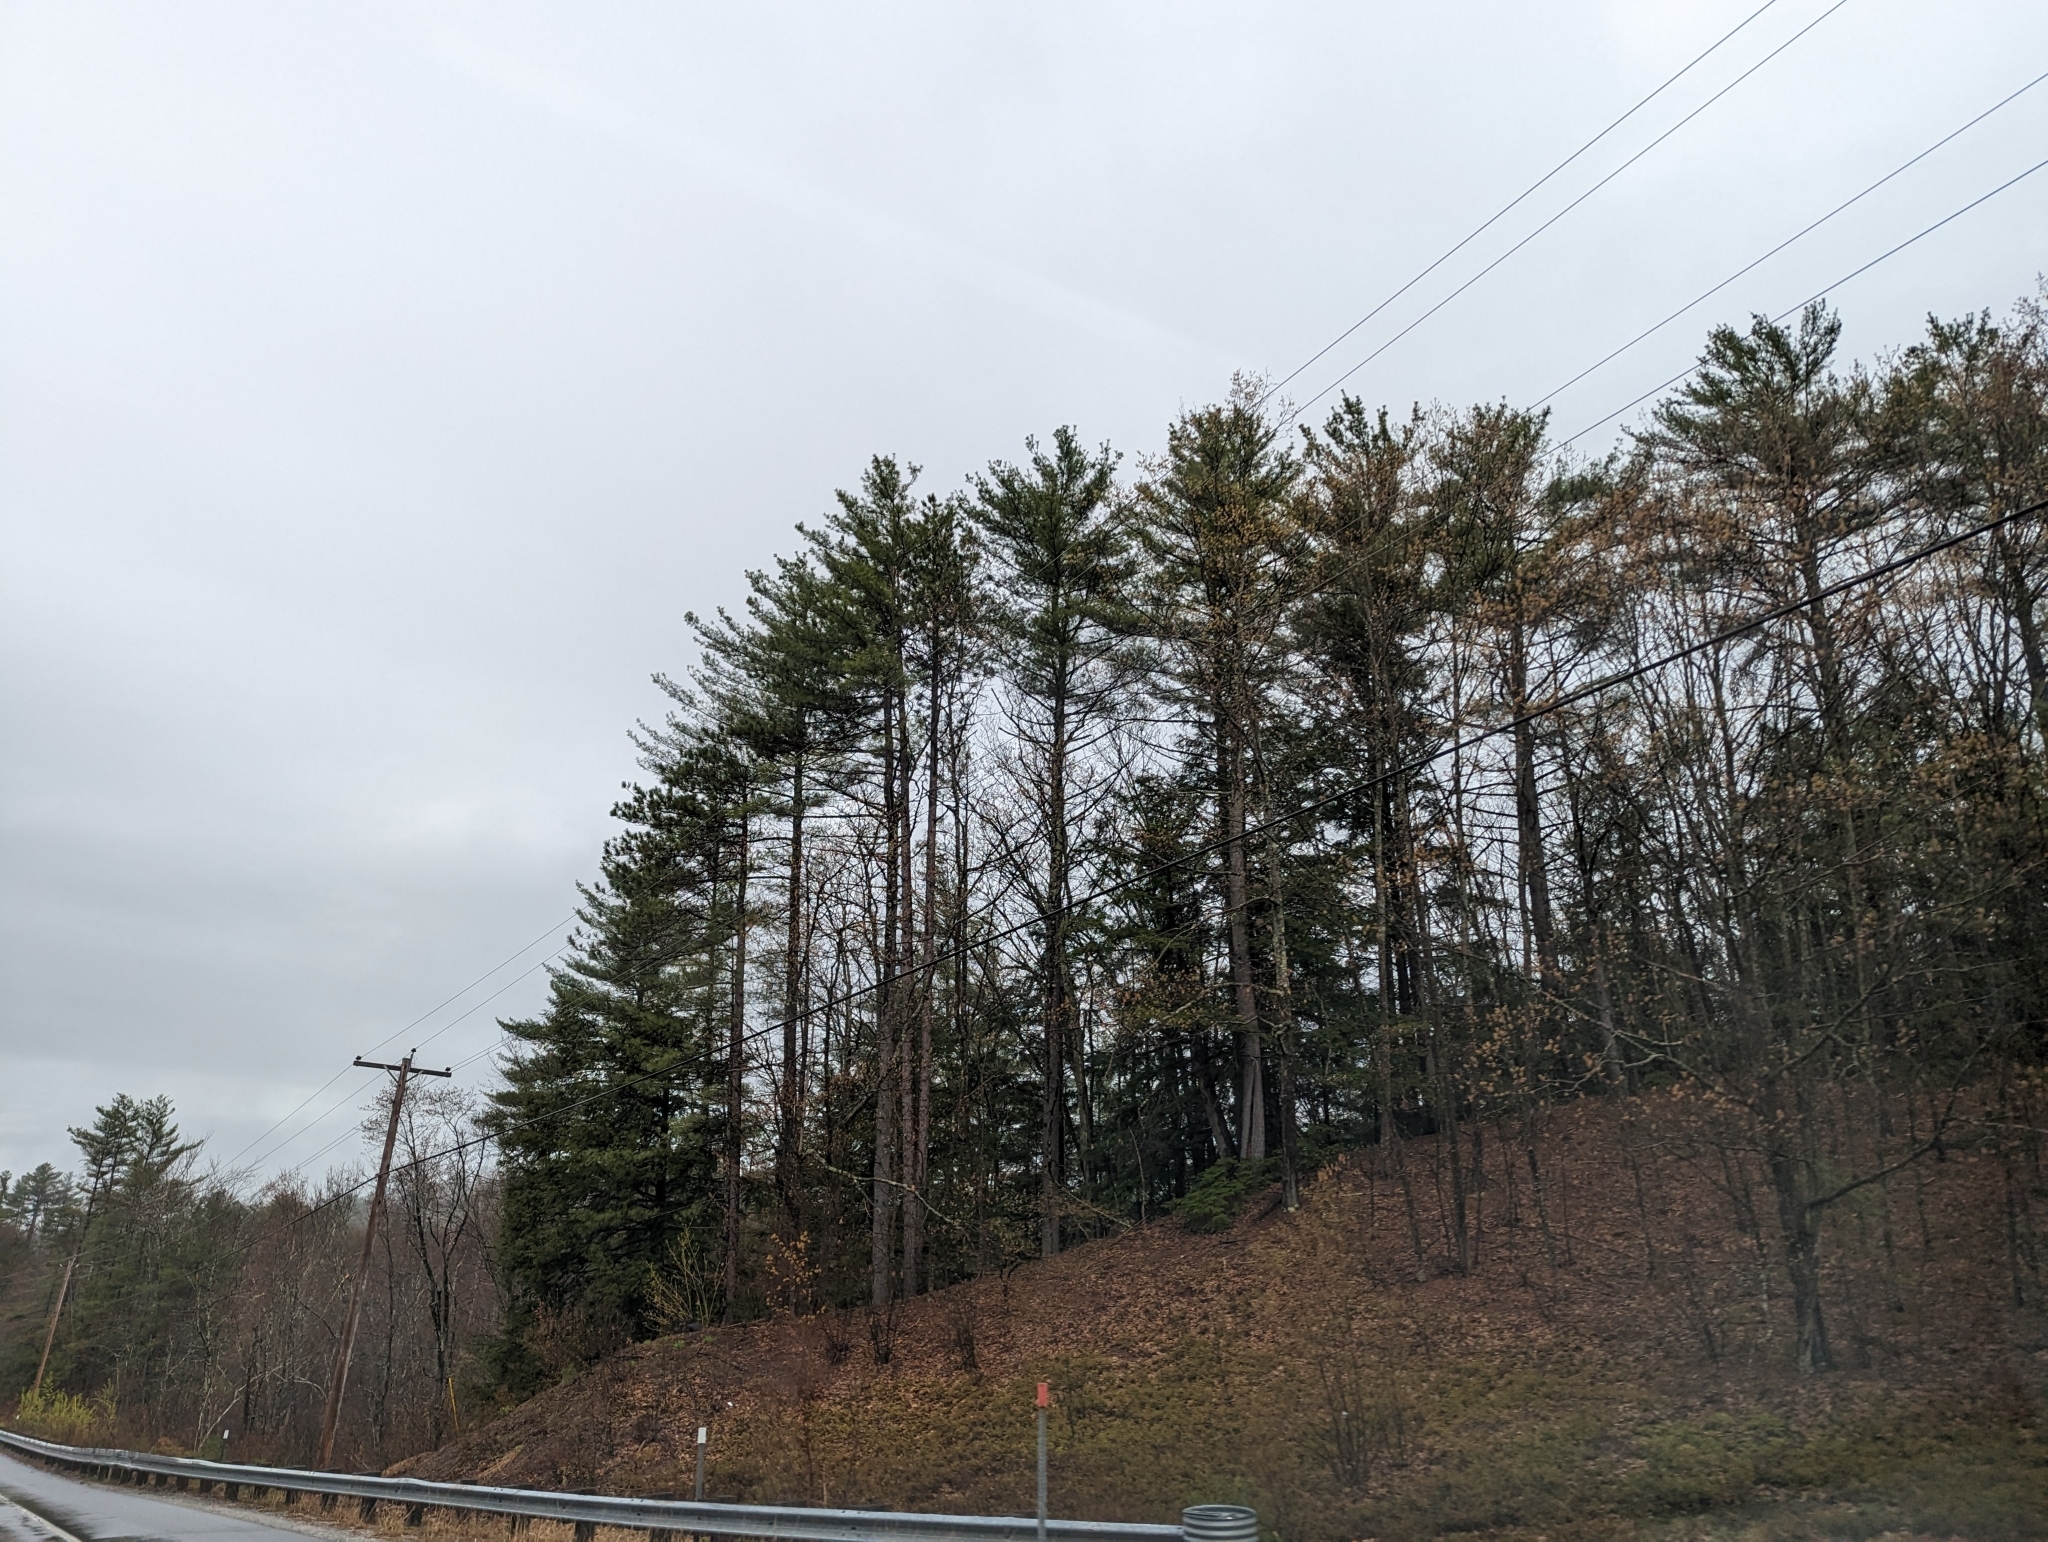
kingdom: Plantae
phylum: Tracheophyta
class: Pinopsida
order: Pinales
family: Pinaceae
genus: Pinus
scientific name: Pinus strobus
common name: Weymouth pine
